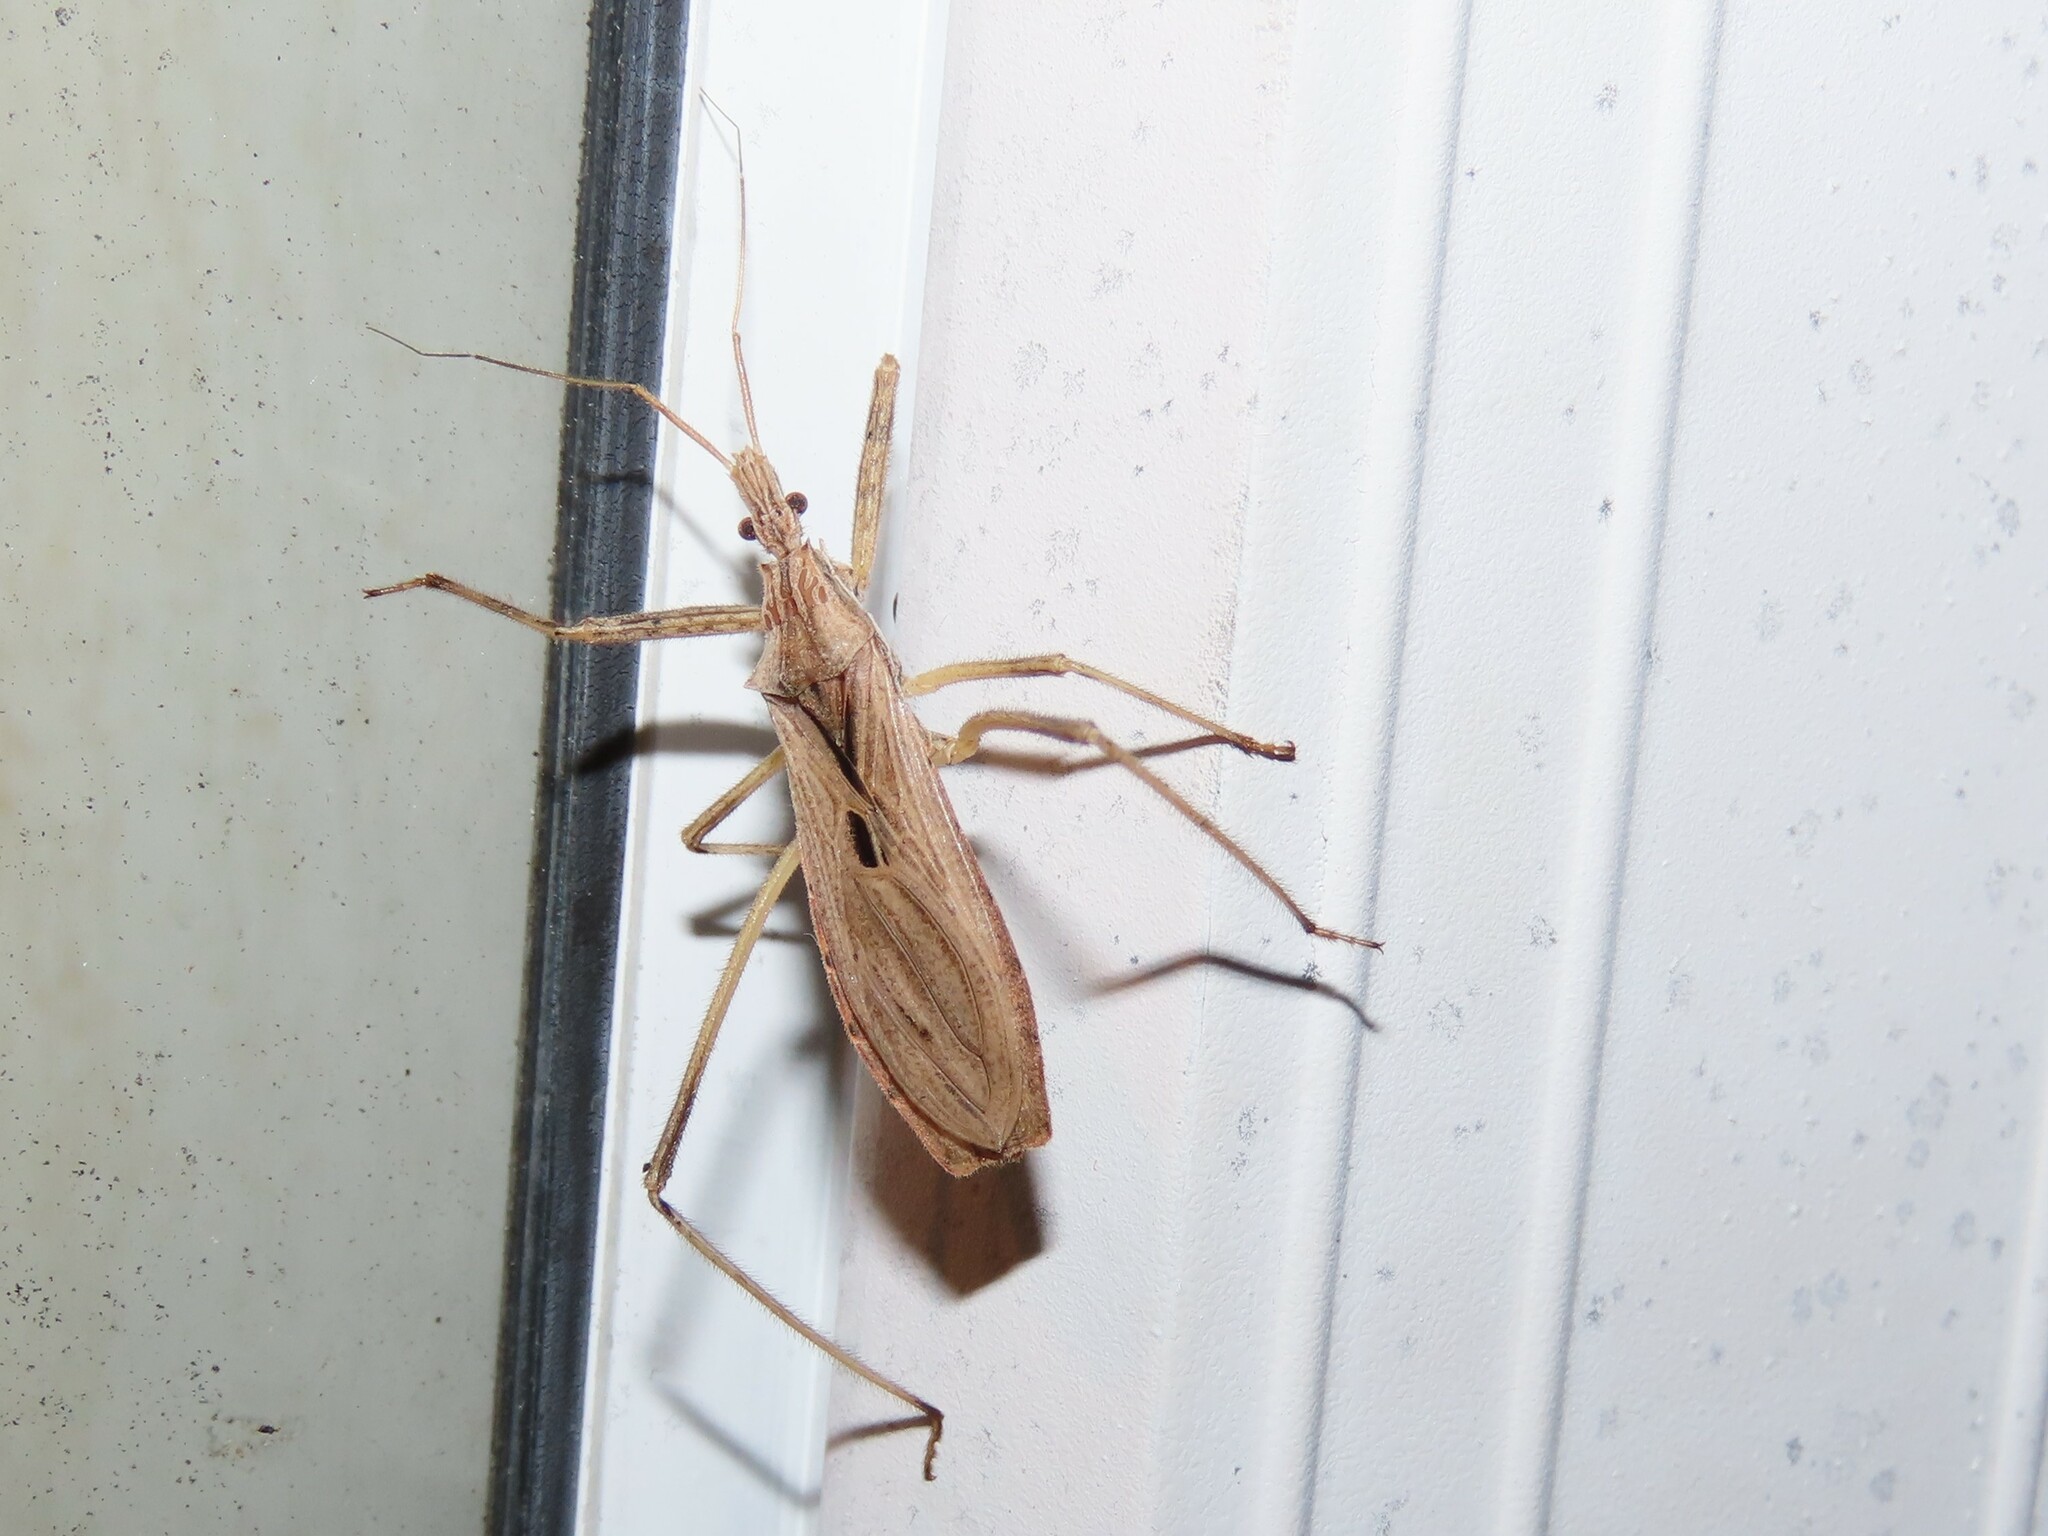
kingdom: Animalia
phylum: Arthropoda
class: Insecta
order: Hemiptera
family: Reduviidae
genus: Stenopoda
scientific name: Stenopoda spinulosa
